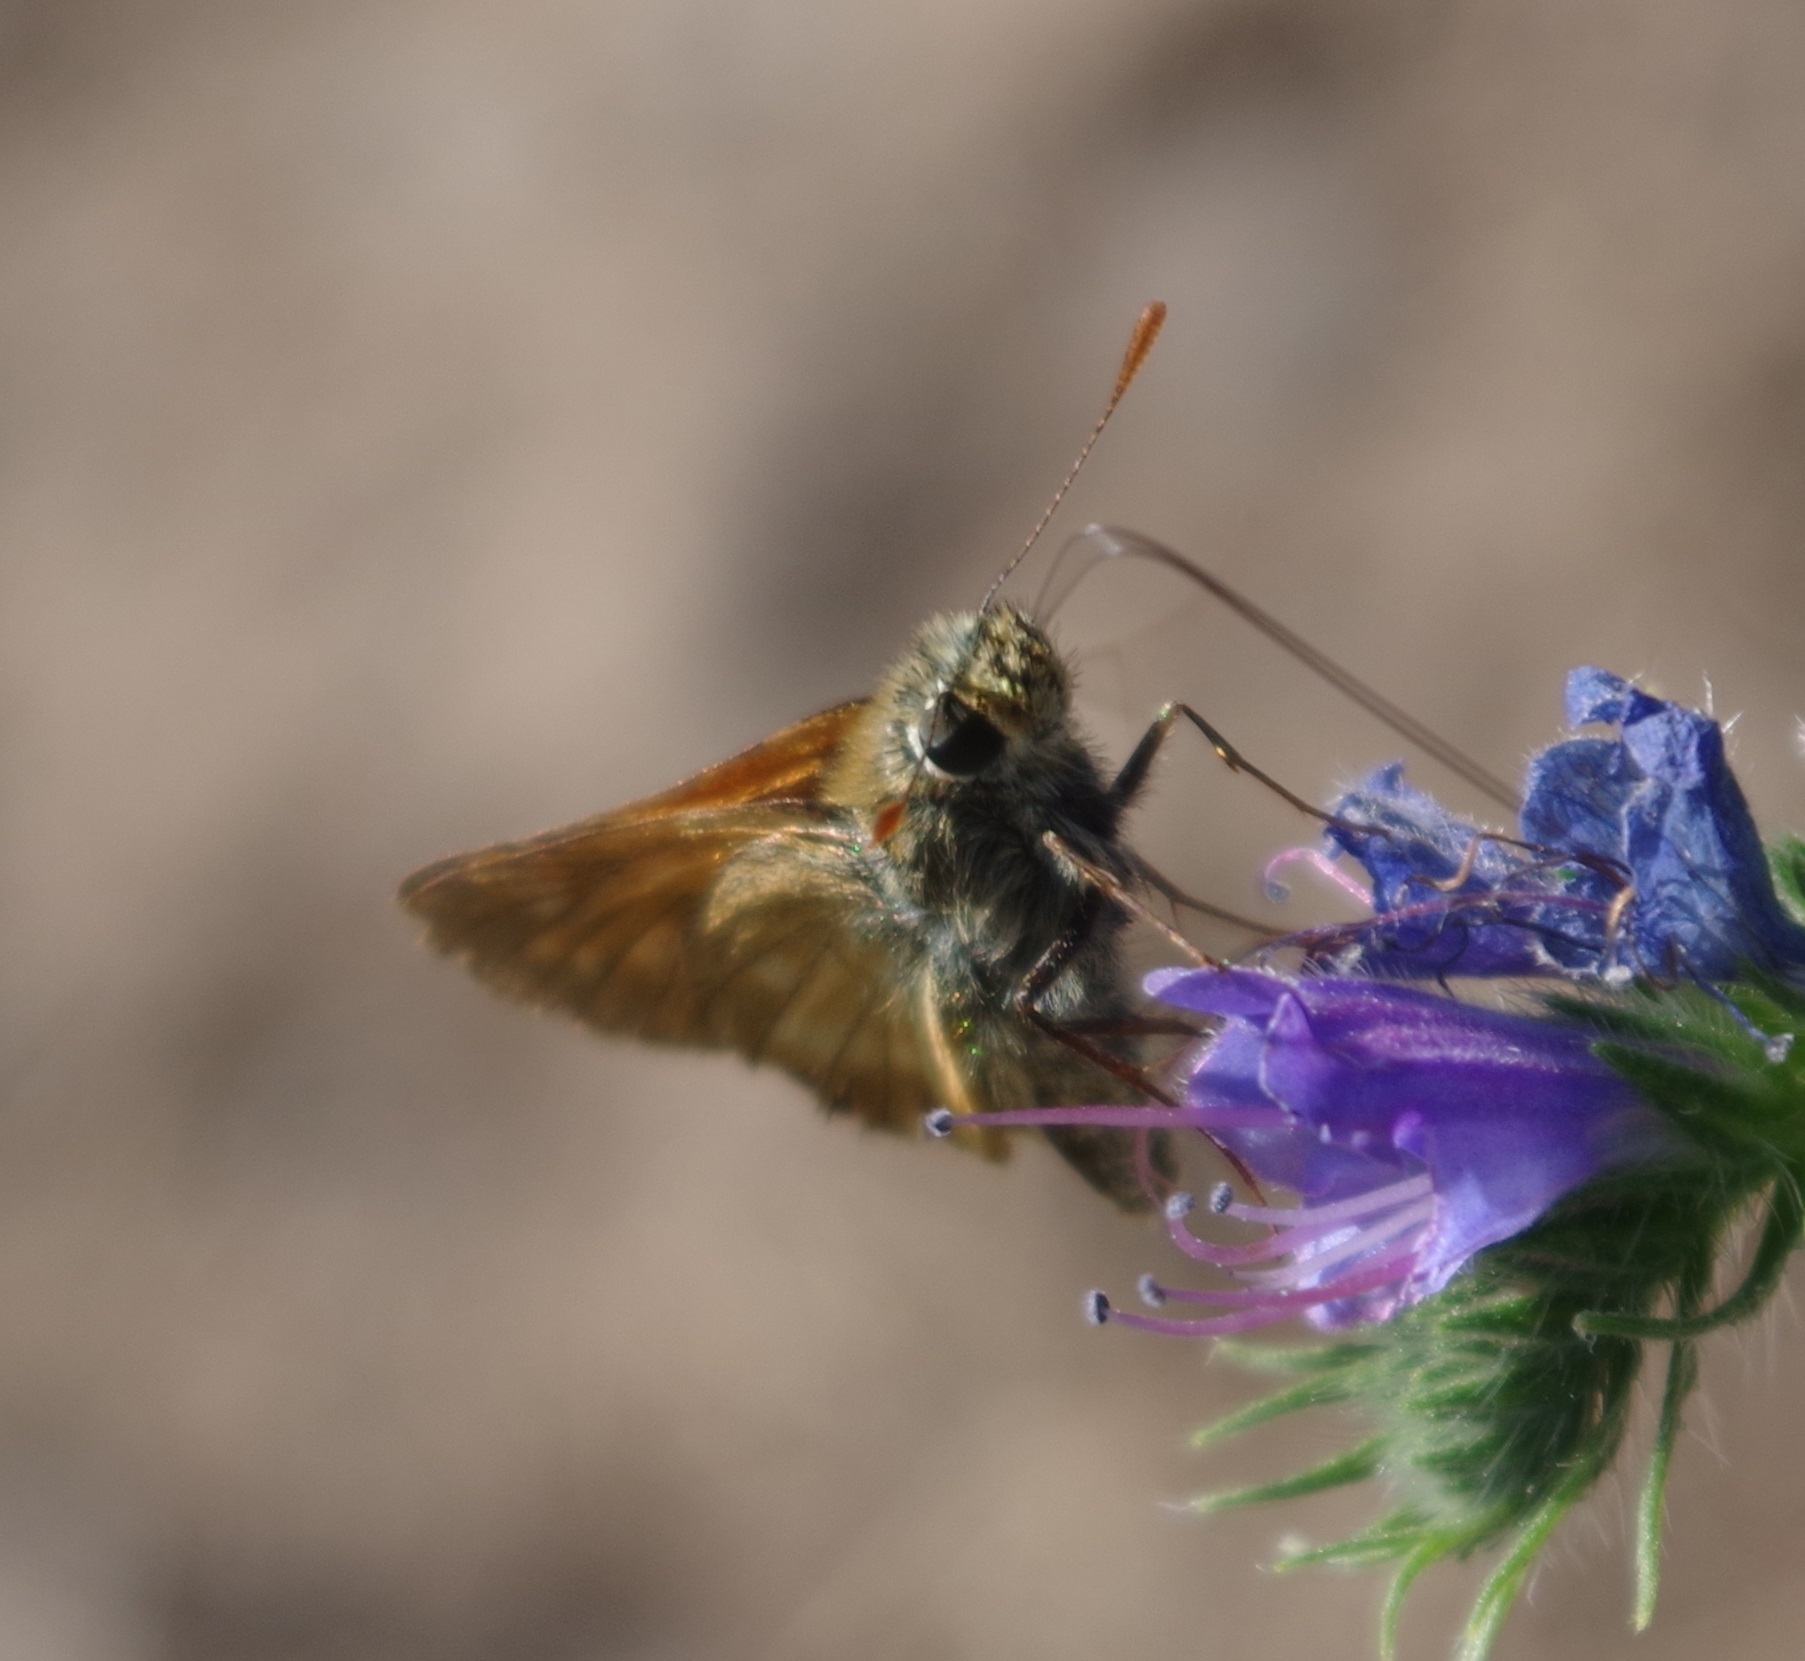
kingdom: Animalia
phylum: Arthropoda
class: Insecta
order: Lepidoptera
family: Hesperiidae
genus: Ochlodes
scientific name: Ochlodes venata
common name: Large skipper
